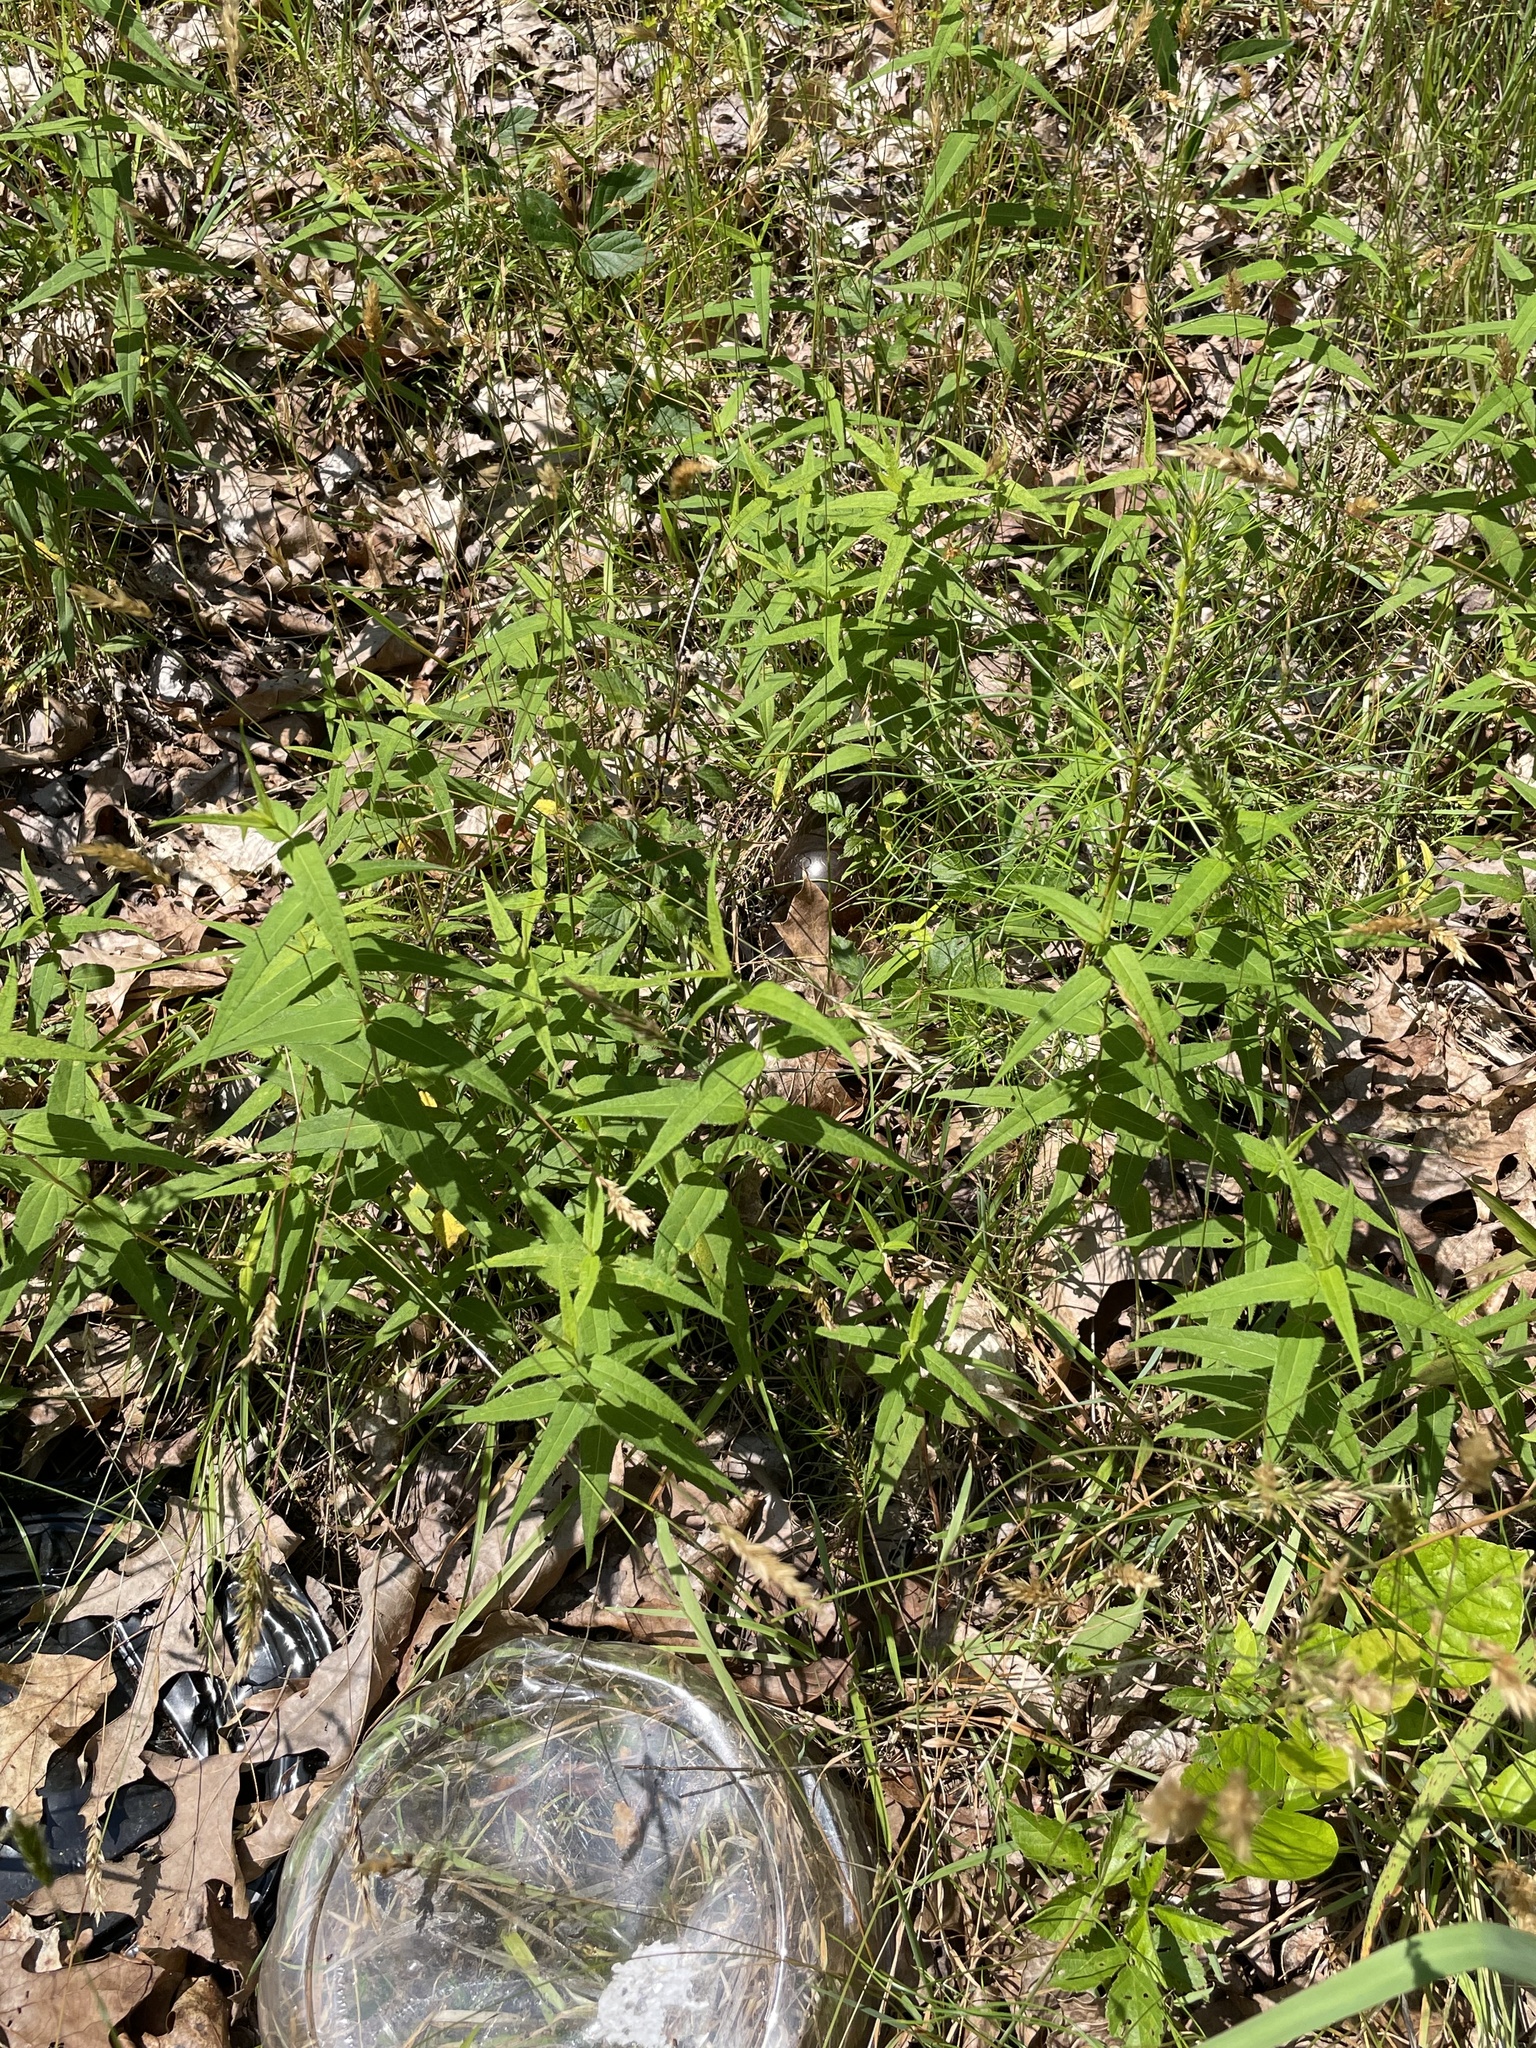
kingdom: Plantae
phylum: Tracheophyta
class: Magnoliopsida
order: Asterales
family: Asteraceae
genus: Helianthus
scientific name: Helianthus divaricatus
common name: Divergent sunflower
